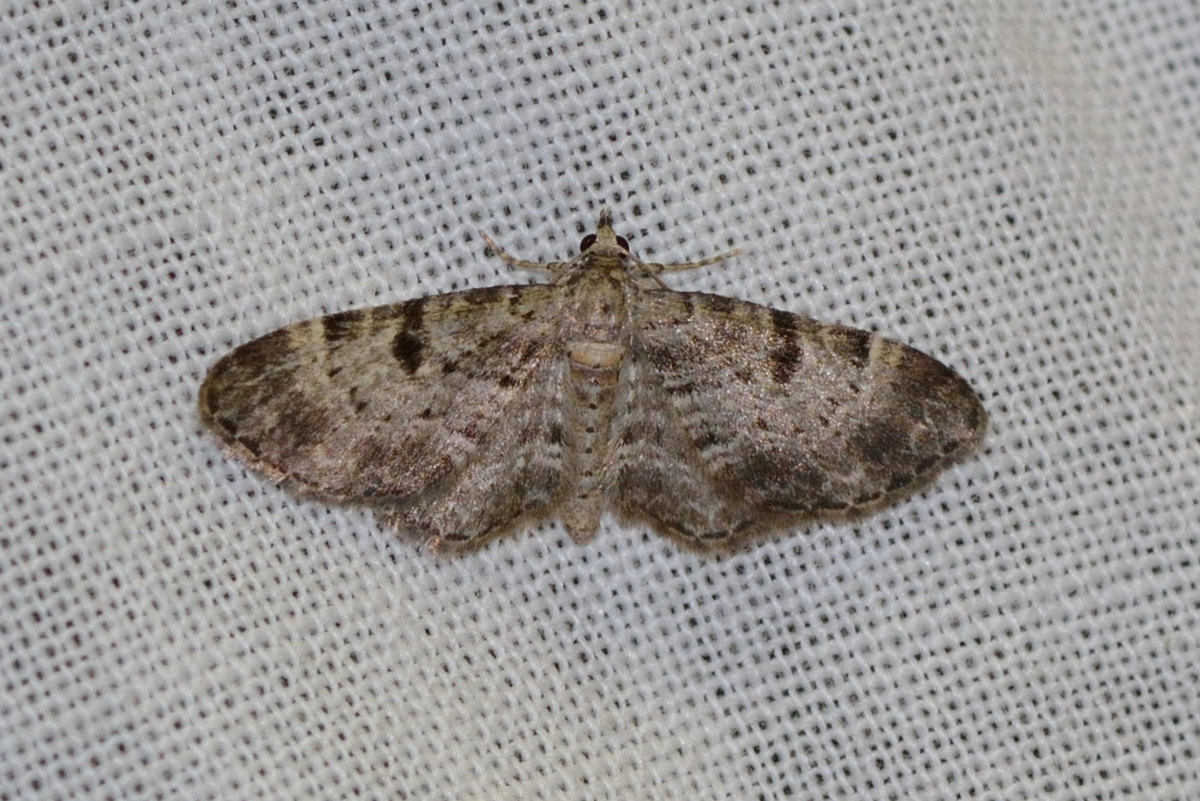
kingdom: Animalia
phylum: Arthropoda
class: Insecta
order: Lepidoptera
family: Geometridae
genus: Eupithecia
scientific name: Eupithecia abietaria
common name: Cloaked pug
